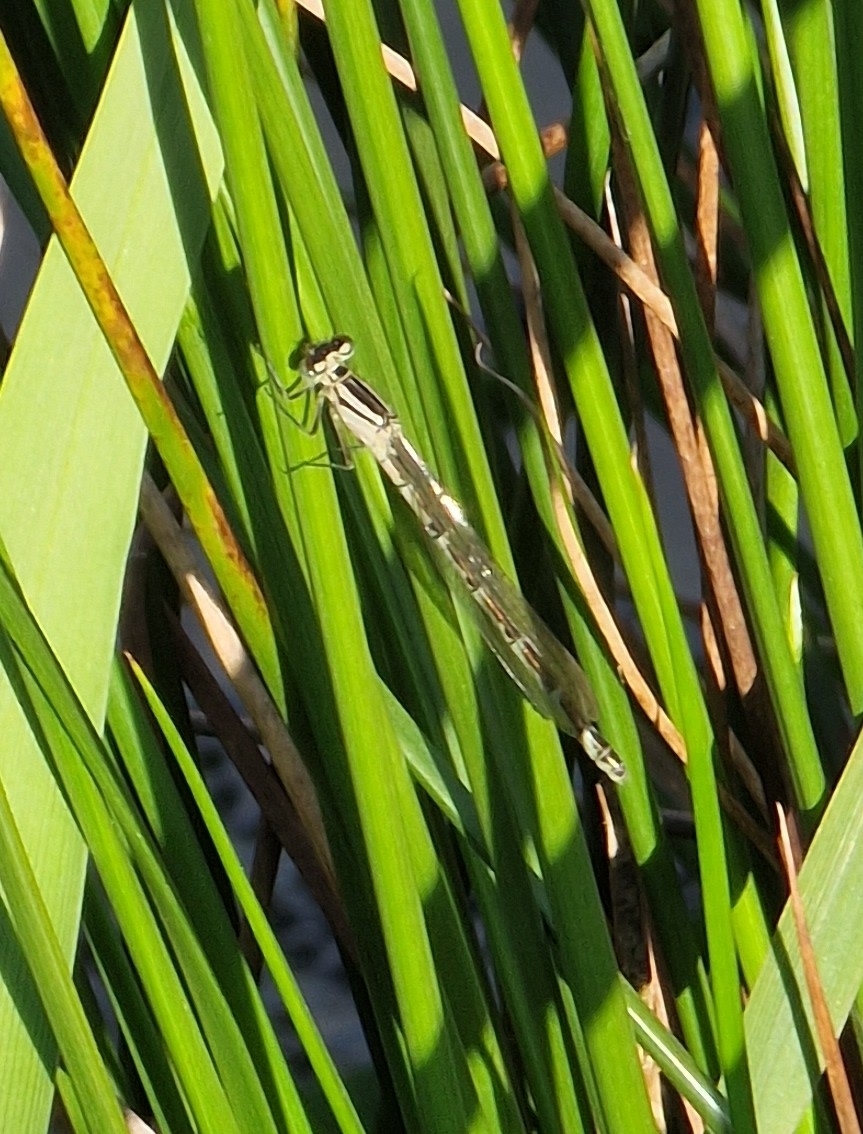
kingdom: Animalia
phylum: Arthropoda
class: Insecta
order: Odonata
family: Coenagrionidae
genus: Enallagma
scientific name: Enallagma cyathigerum
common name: Common blue damselfly
